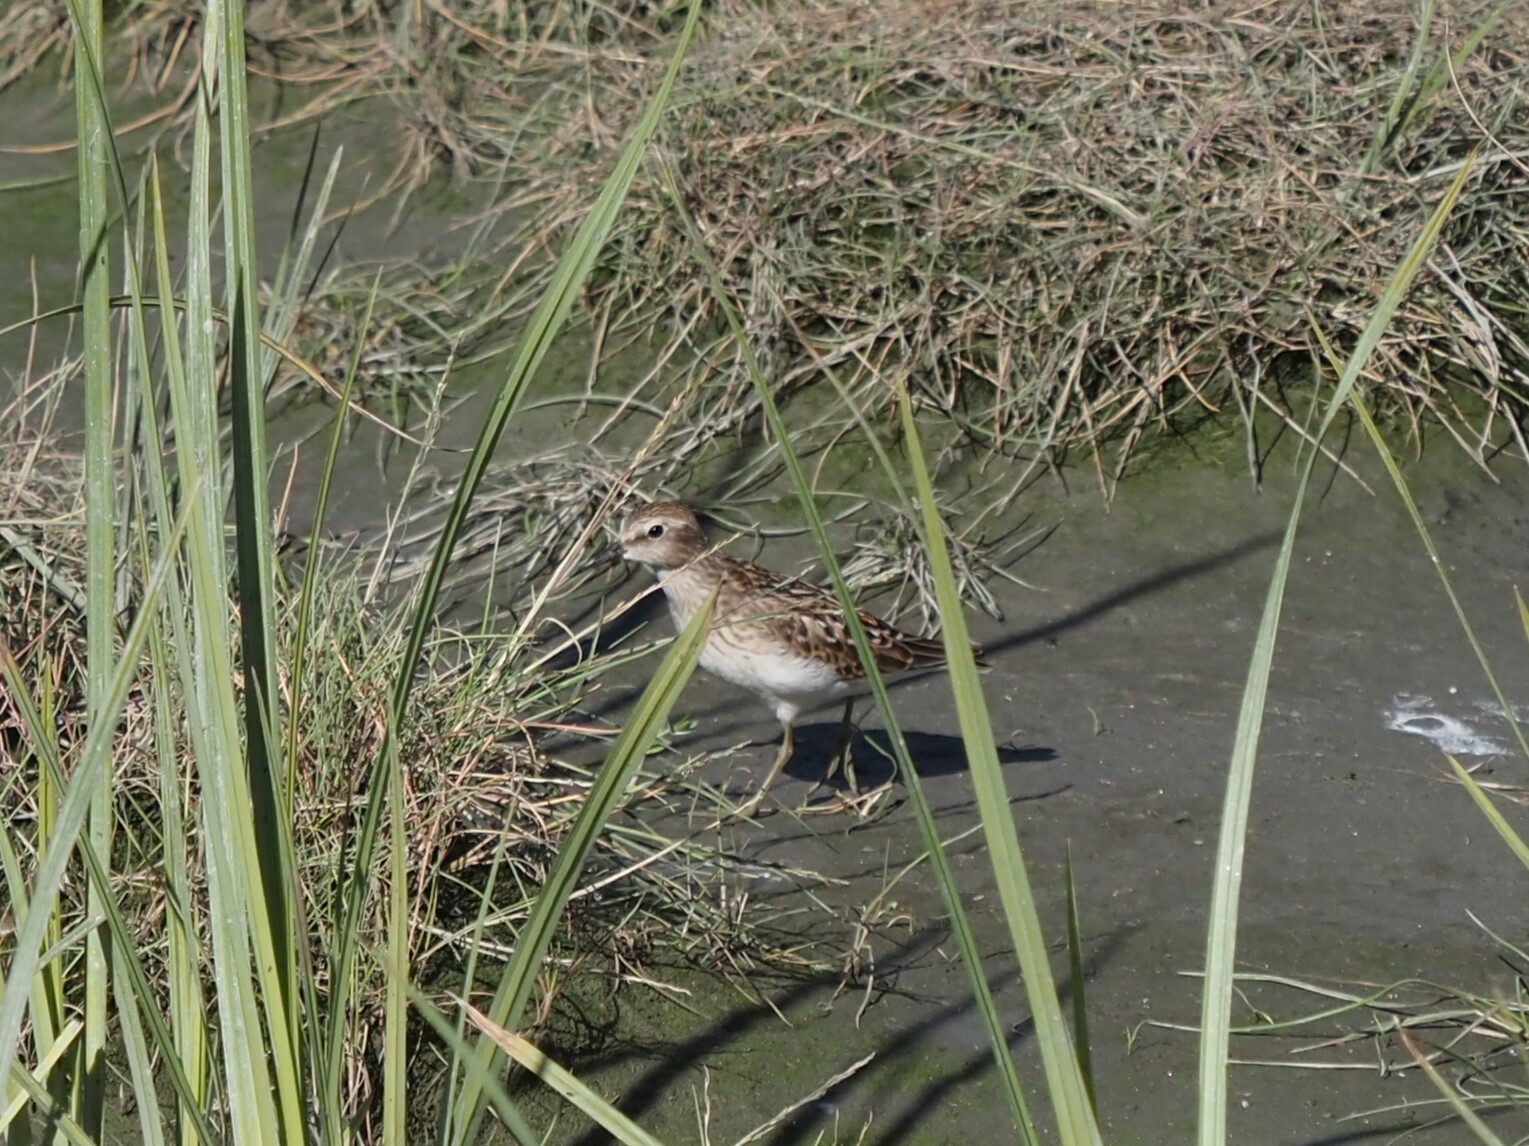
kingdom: Animalia
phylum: Chordata
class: Aves
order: Charadriiformes
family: Scolopacidae
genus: Calidris
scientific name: Calidris minutilla
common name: Least sandpiper
